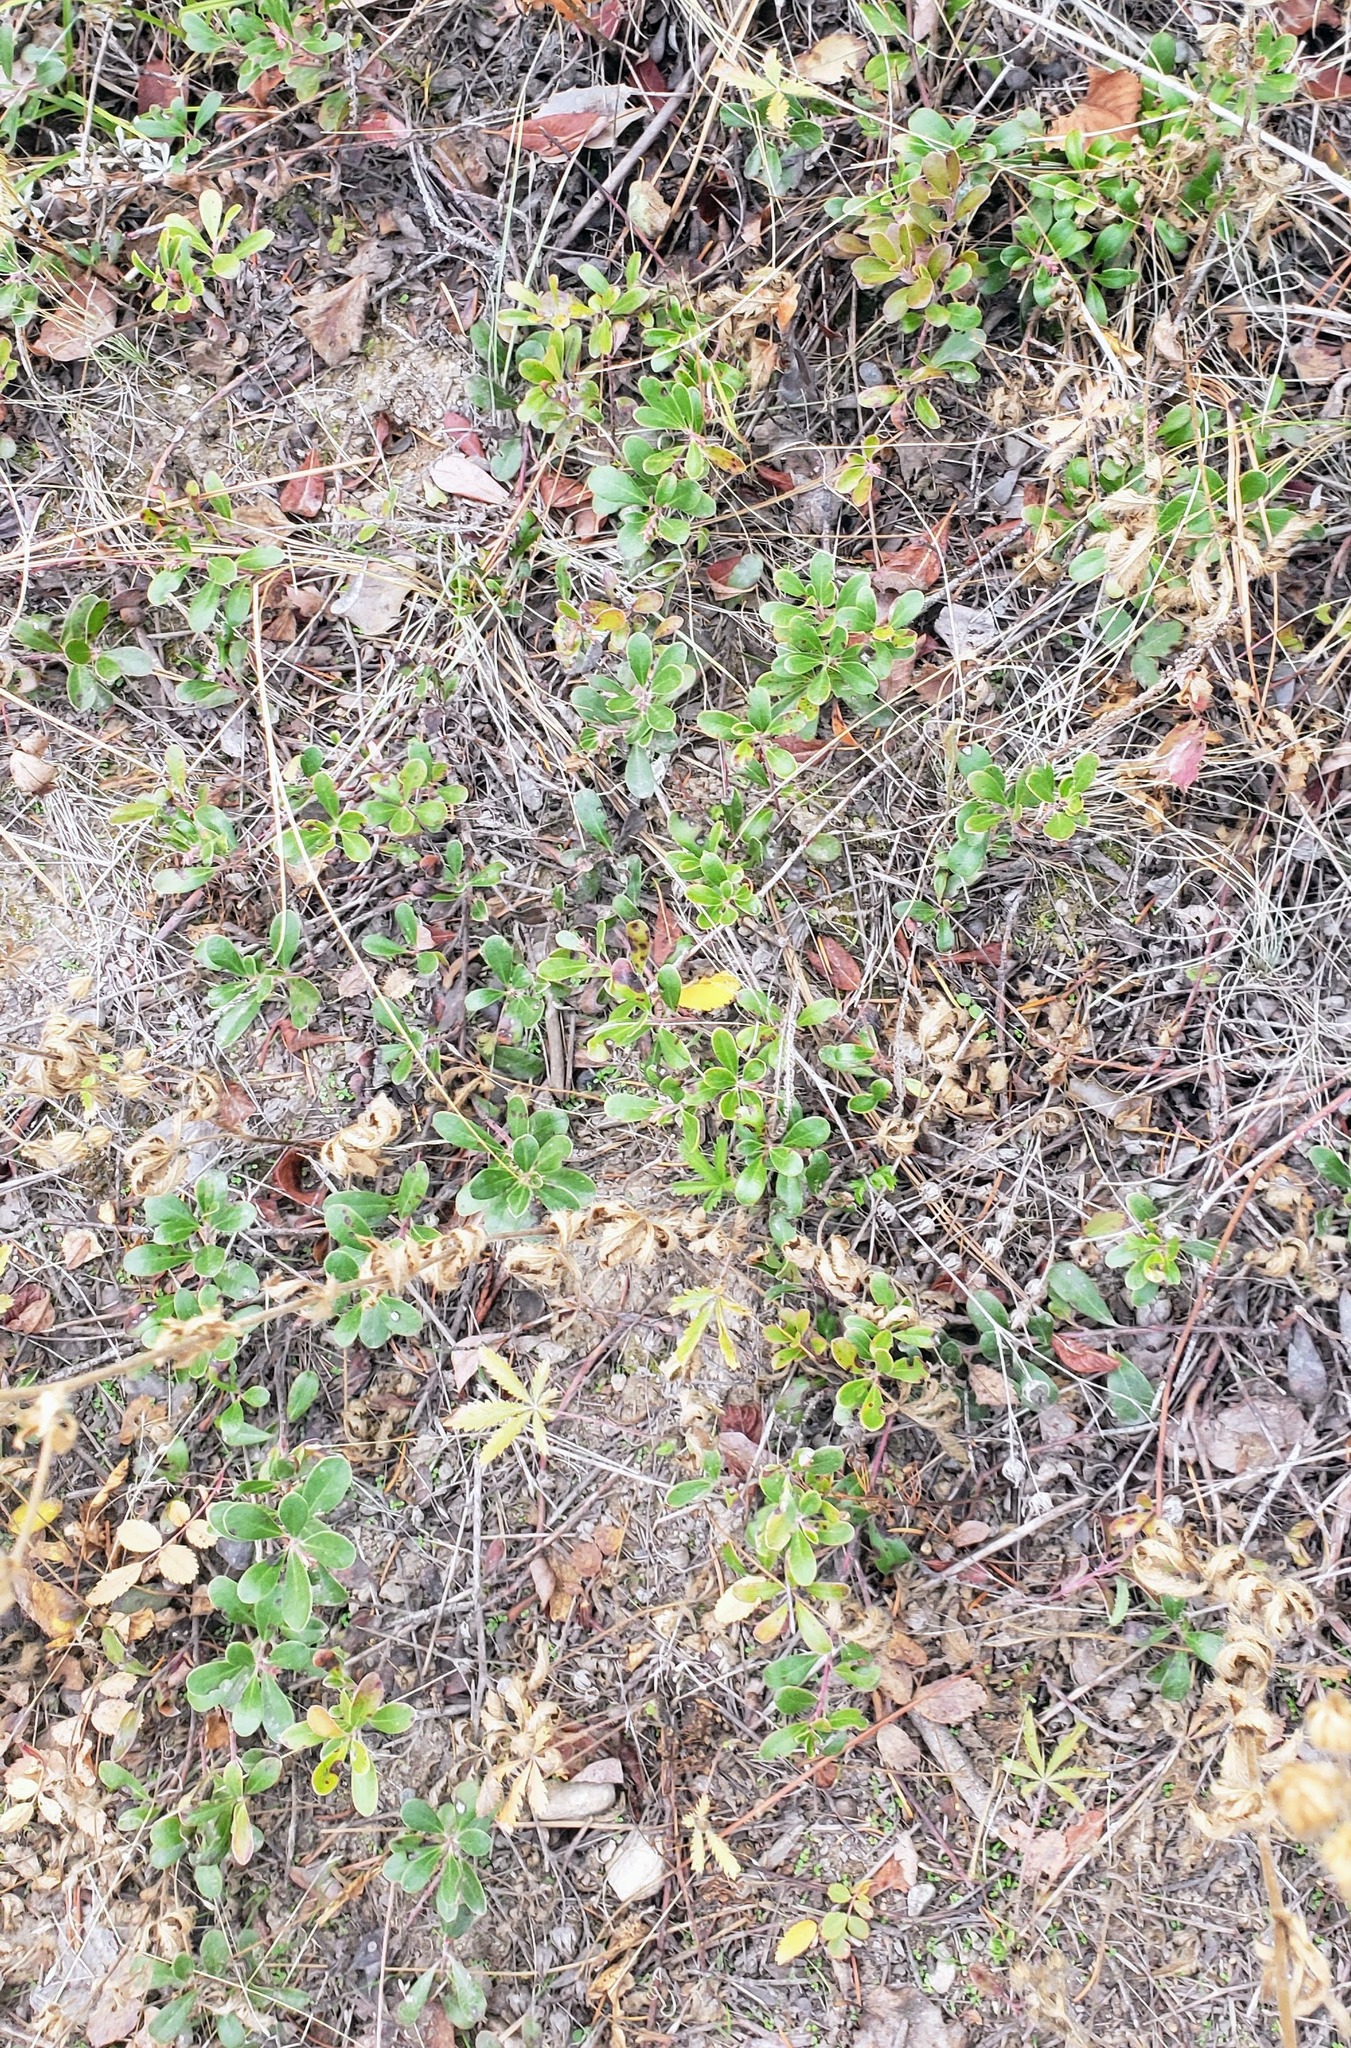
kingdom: Plantae
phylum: Tracheophyta
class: Magnoliopsida
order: Ericales
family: Ericaceae
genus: Arctostaphylos
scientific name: Arctostaphylos uva-ursi
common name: Bearberry
